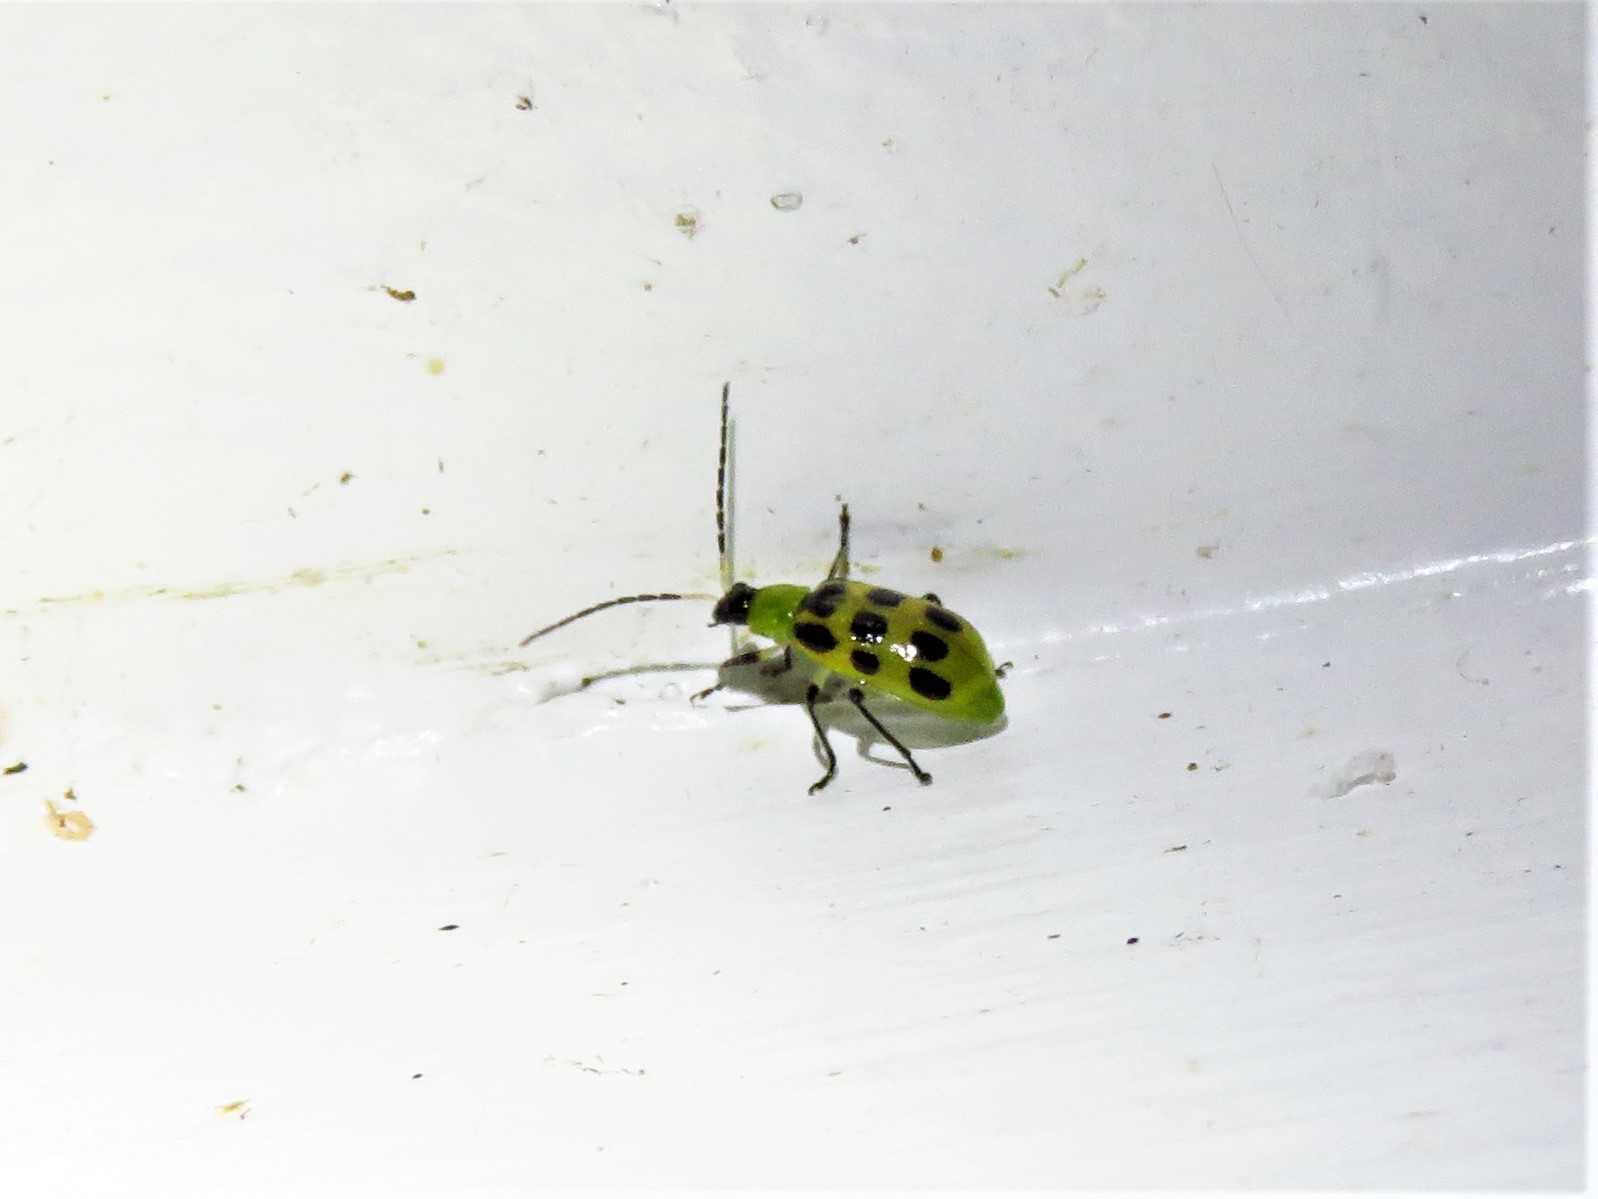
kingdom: Animalia
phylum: Arthropoda
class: Insecta
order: Coleoptera
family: Chrysomelidae
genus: Diabrotica
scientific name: Diabrotica undecimpunctata
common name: Spotted cucumber beetle
